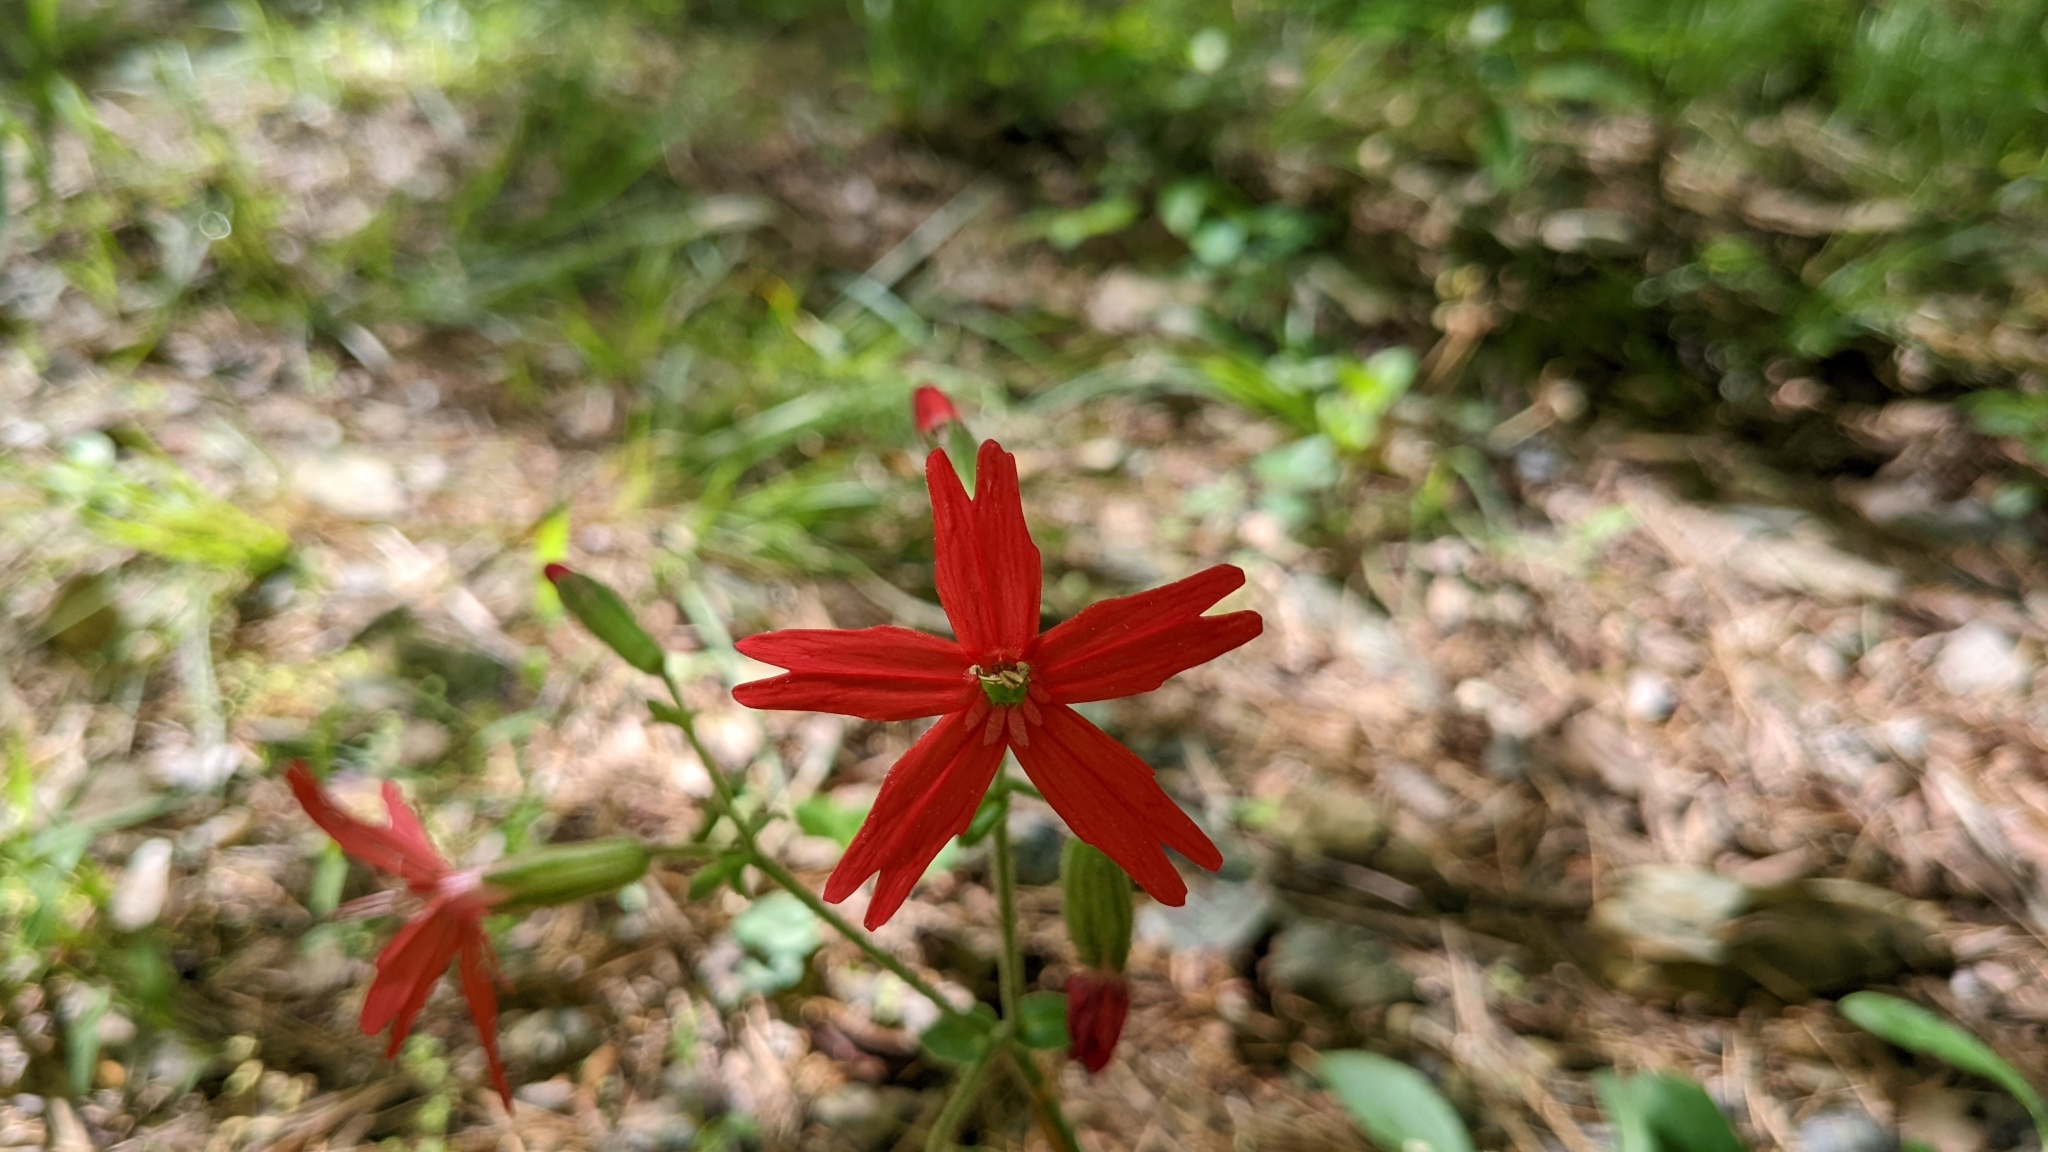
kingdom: Plantae
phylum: Tracheophyta
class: Magnoliopsida
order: Caryophyllales
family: Caryophyllaceae
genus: Silene
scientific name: Silene virginica
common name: Fire-pink
